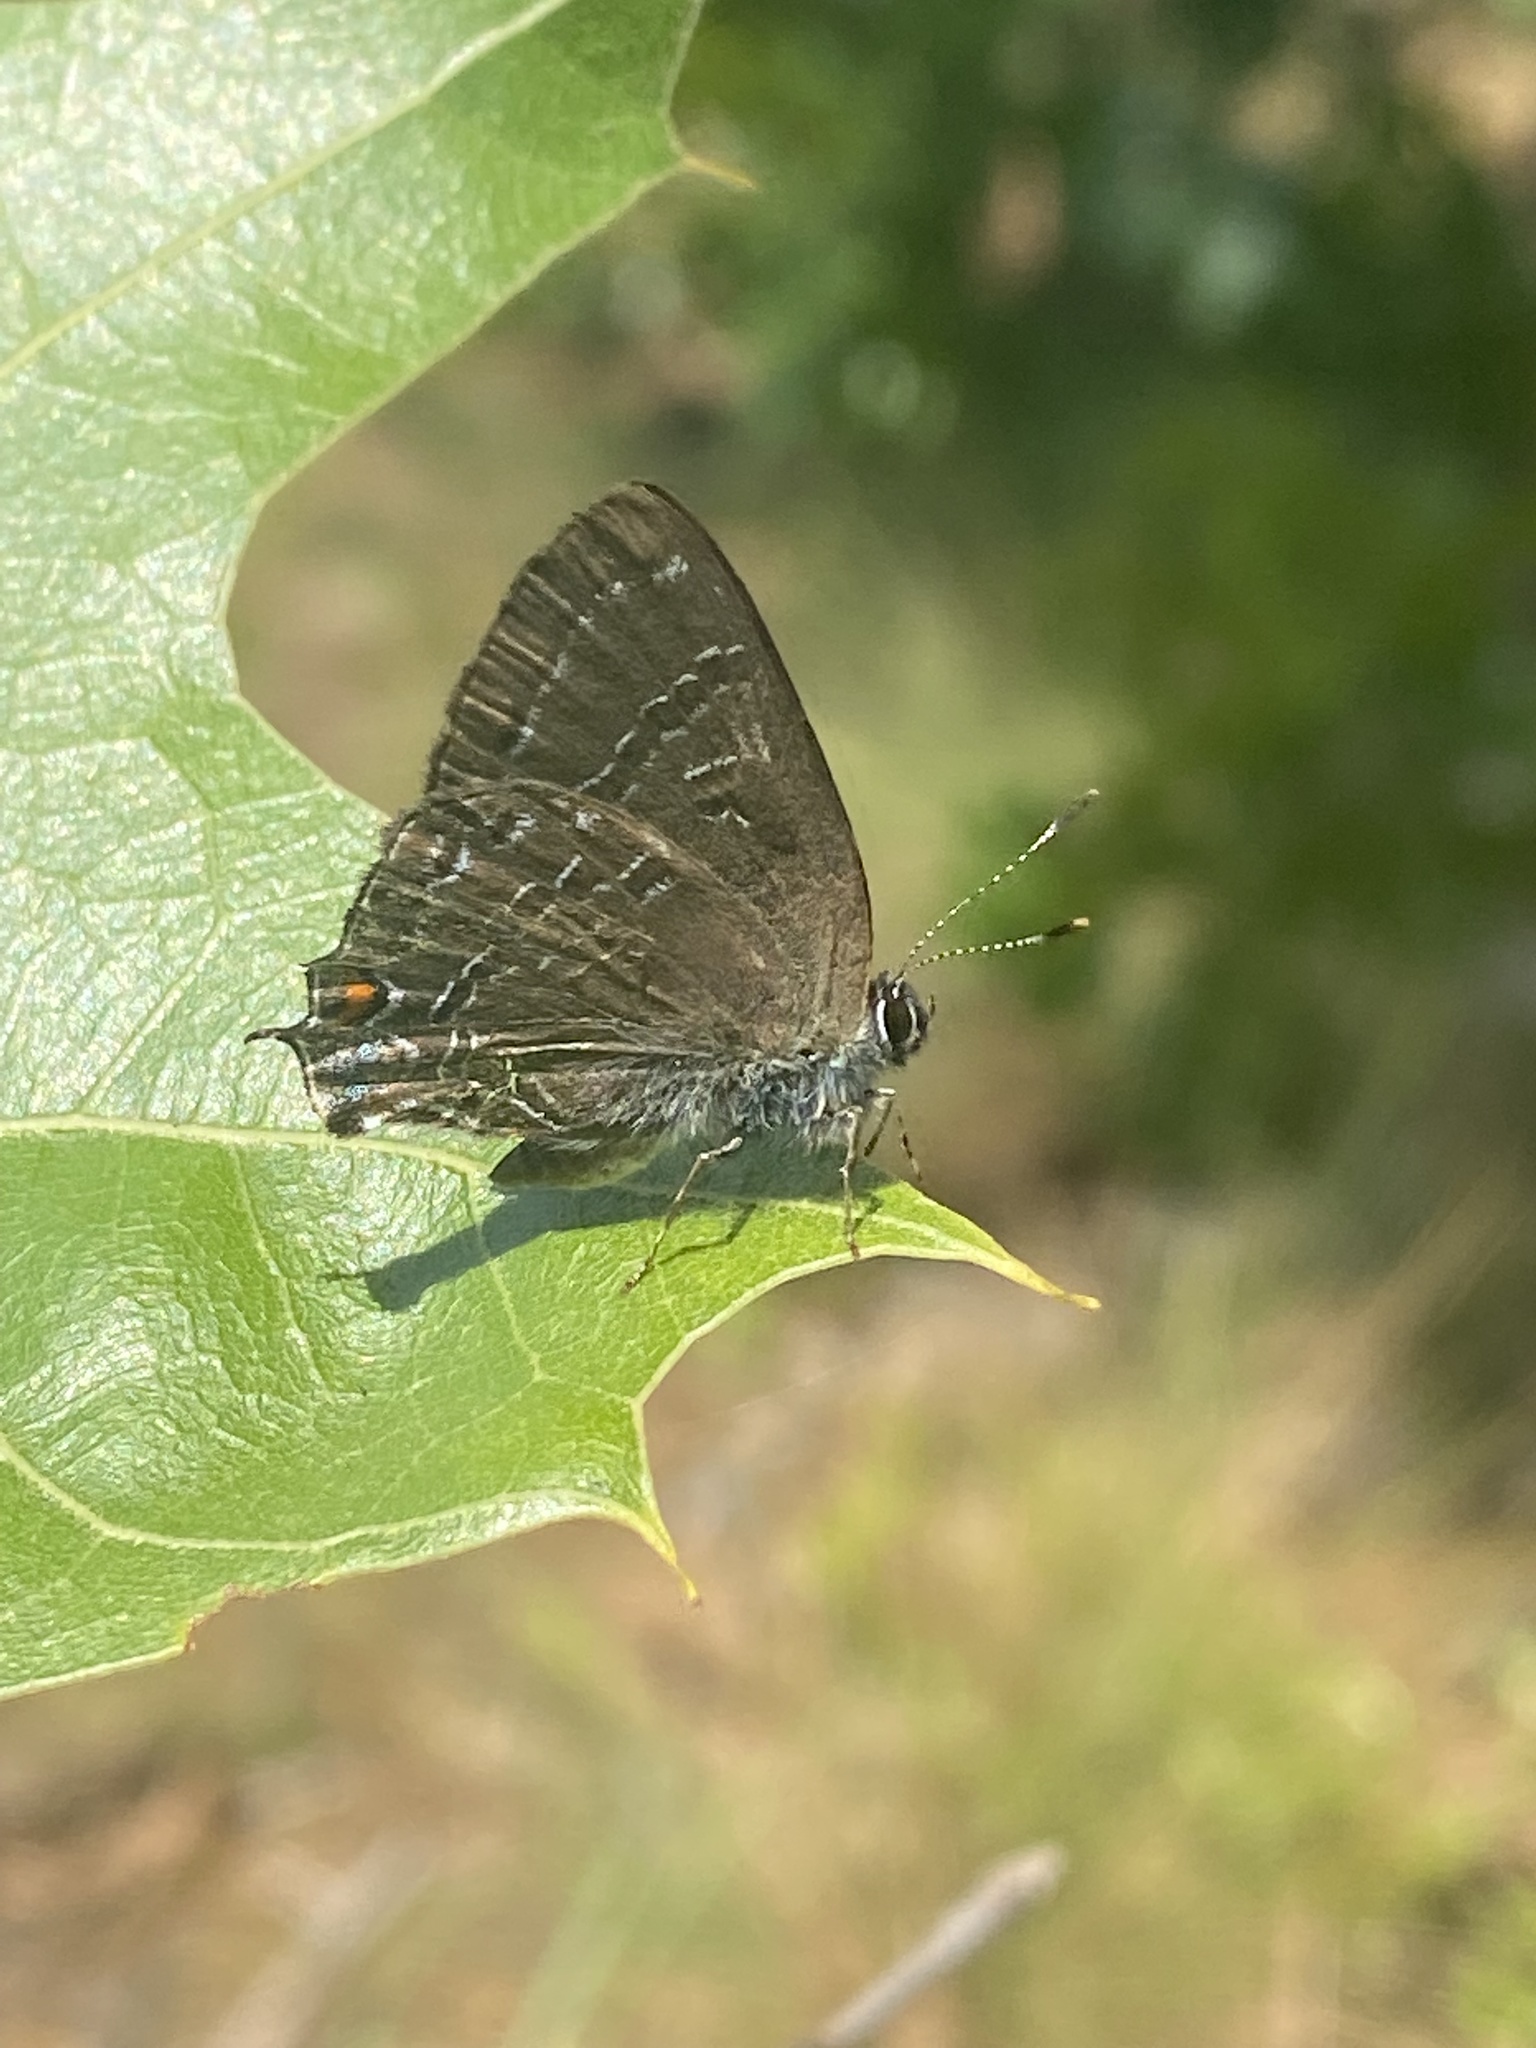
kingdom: Animalia
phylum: Arthropoda
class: Insecta
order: Lepidoptera
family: Lycaenidae
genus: Satyrium
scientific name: Satyrium calanus
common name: Banded hairstreak
